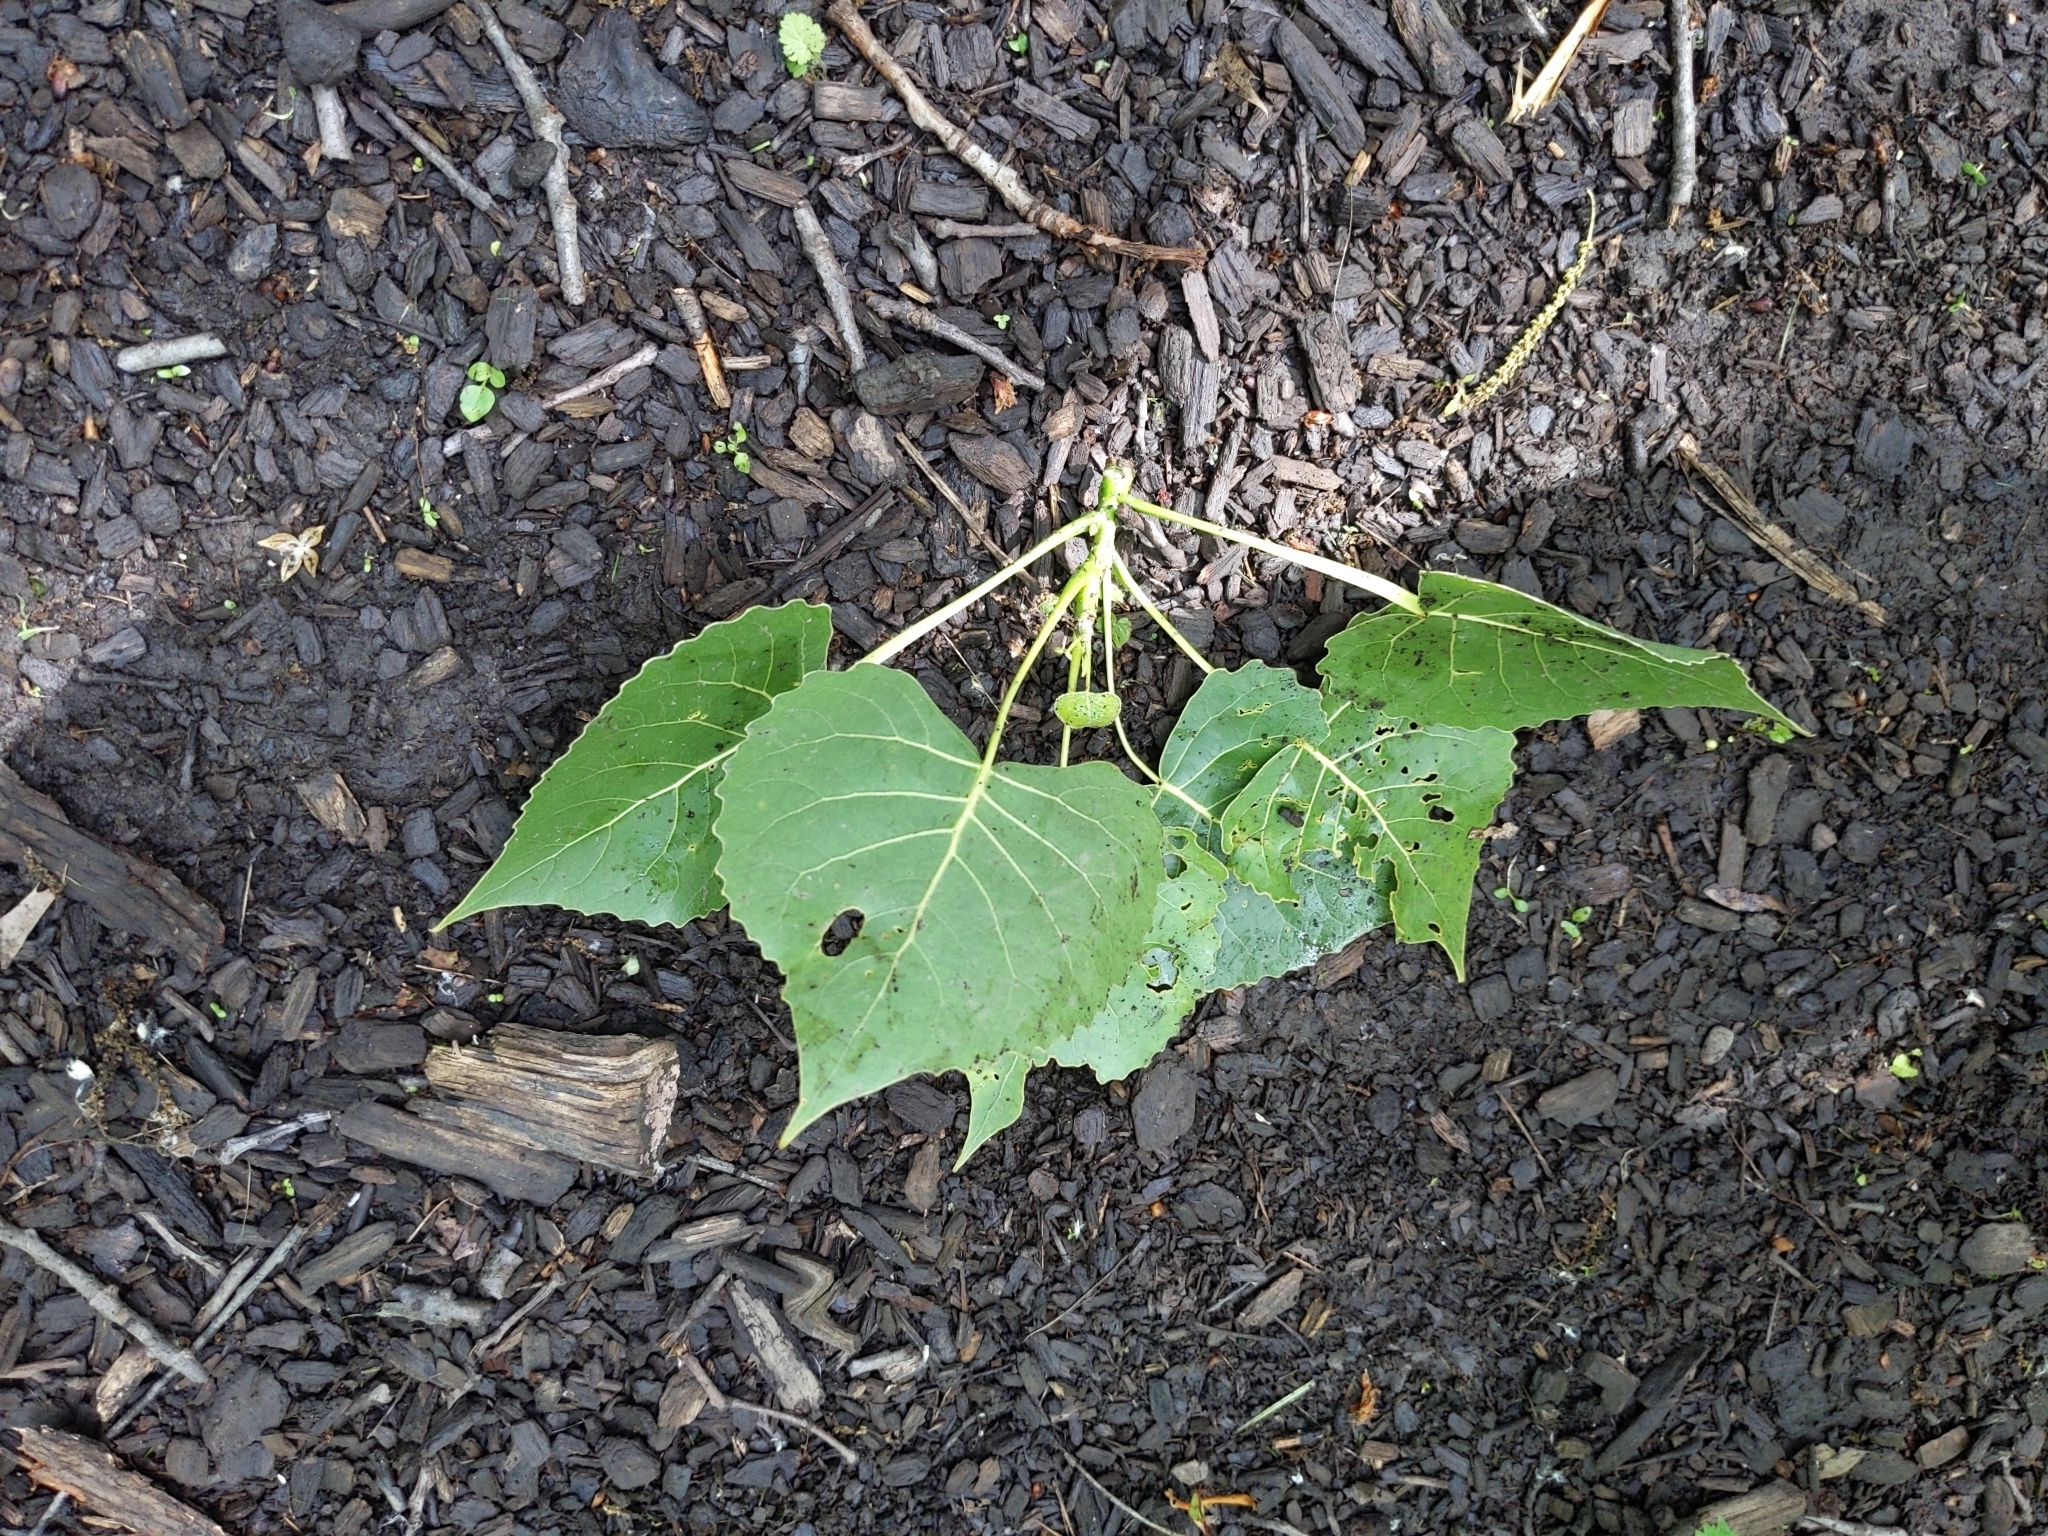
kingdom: Plantae
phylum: Tracheophyta
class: Magnoliopsida
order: Malpighiales
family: Salicaceae
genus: Populus
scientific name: Populus deltoides
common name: Eastern cottonwood
